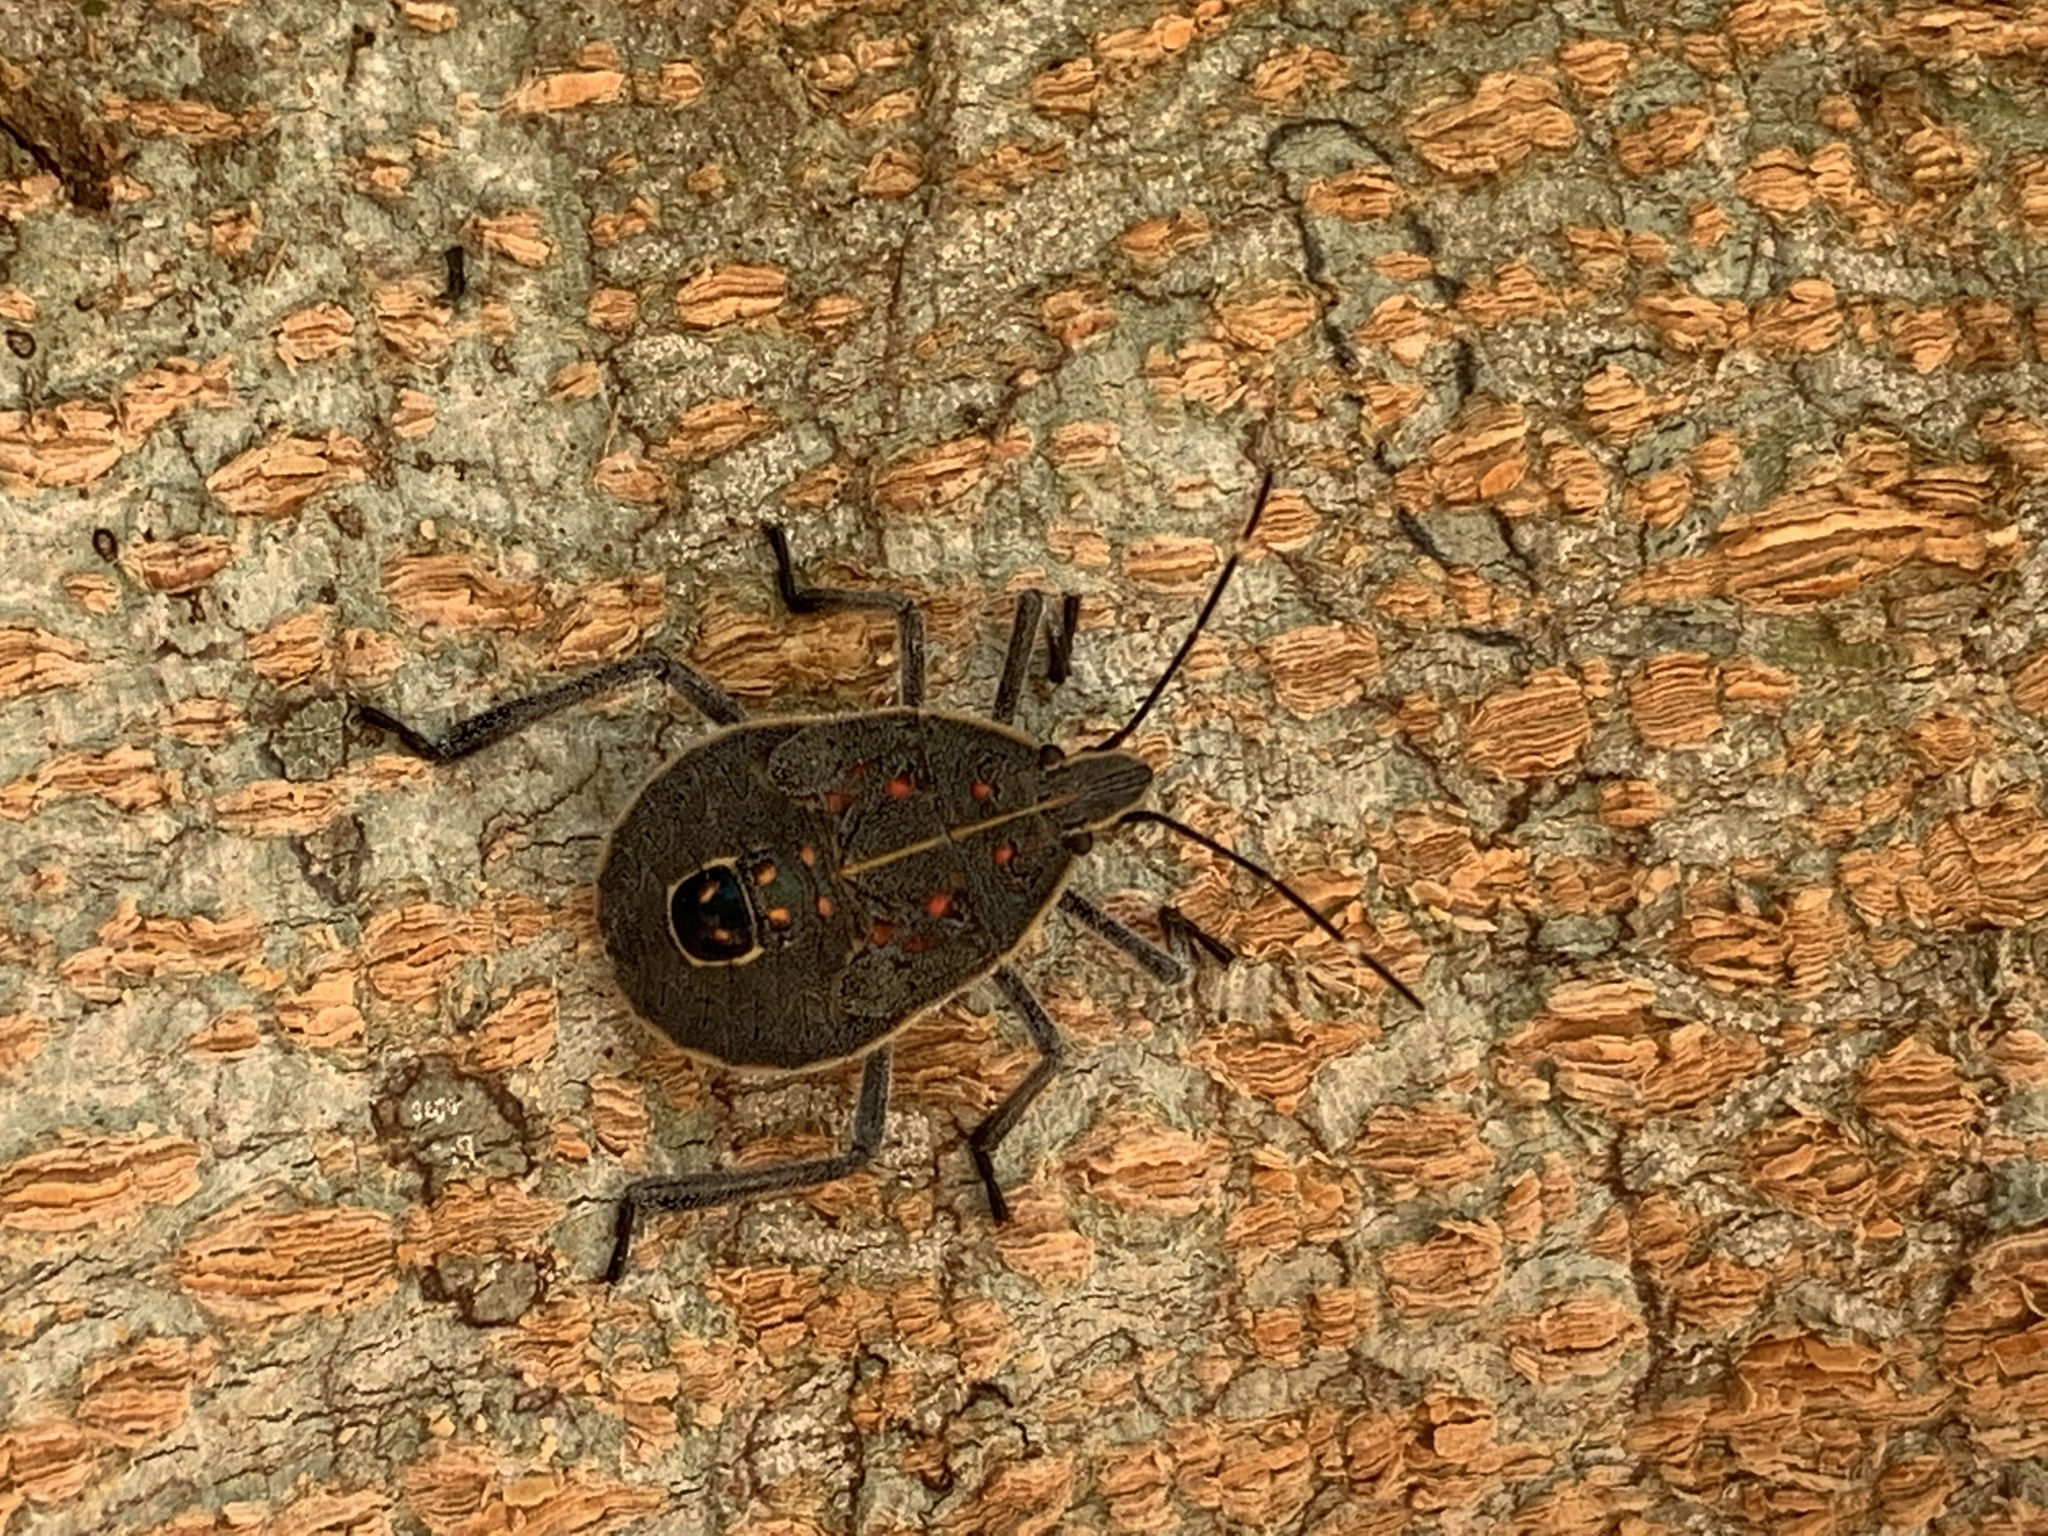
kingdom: Animalia
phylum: Arthropoda
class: Insecta
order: Hemiptera
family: Pentatomidae
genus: Erthesina
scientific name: Erthesina fullo
